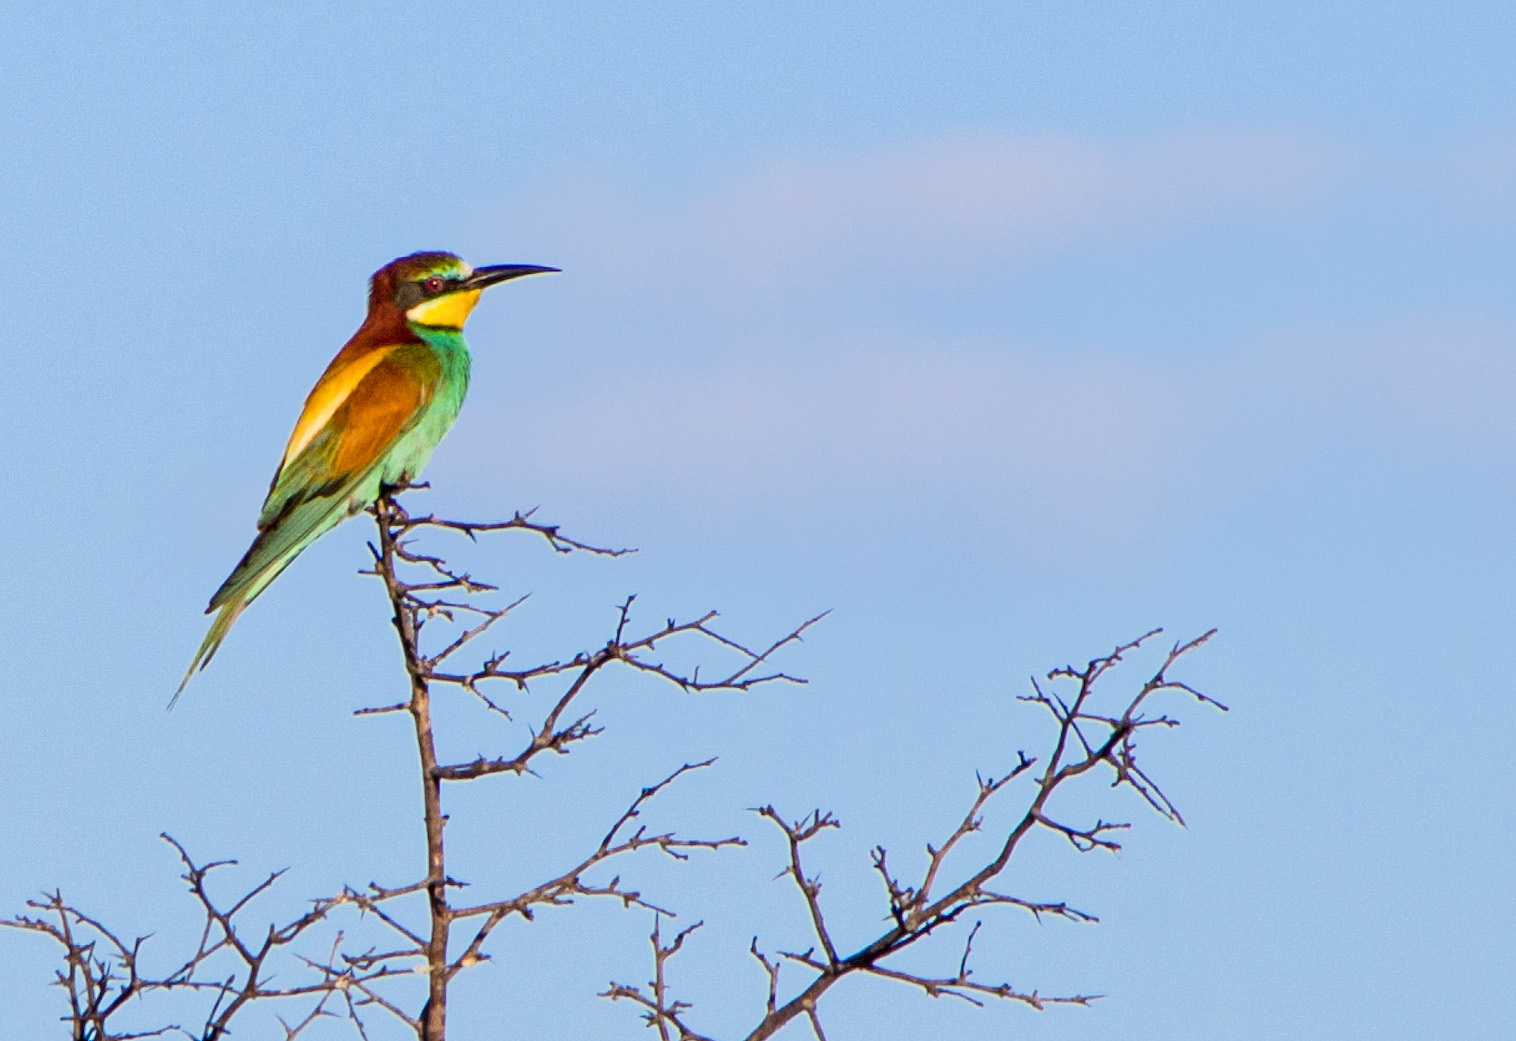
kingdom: Animalia
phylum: Chordata
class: Aves
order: Coraciiformes
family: Meropidae
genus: Merops
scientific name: Merops apiaster
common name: European bee-eater
